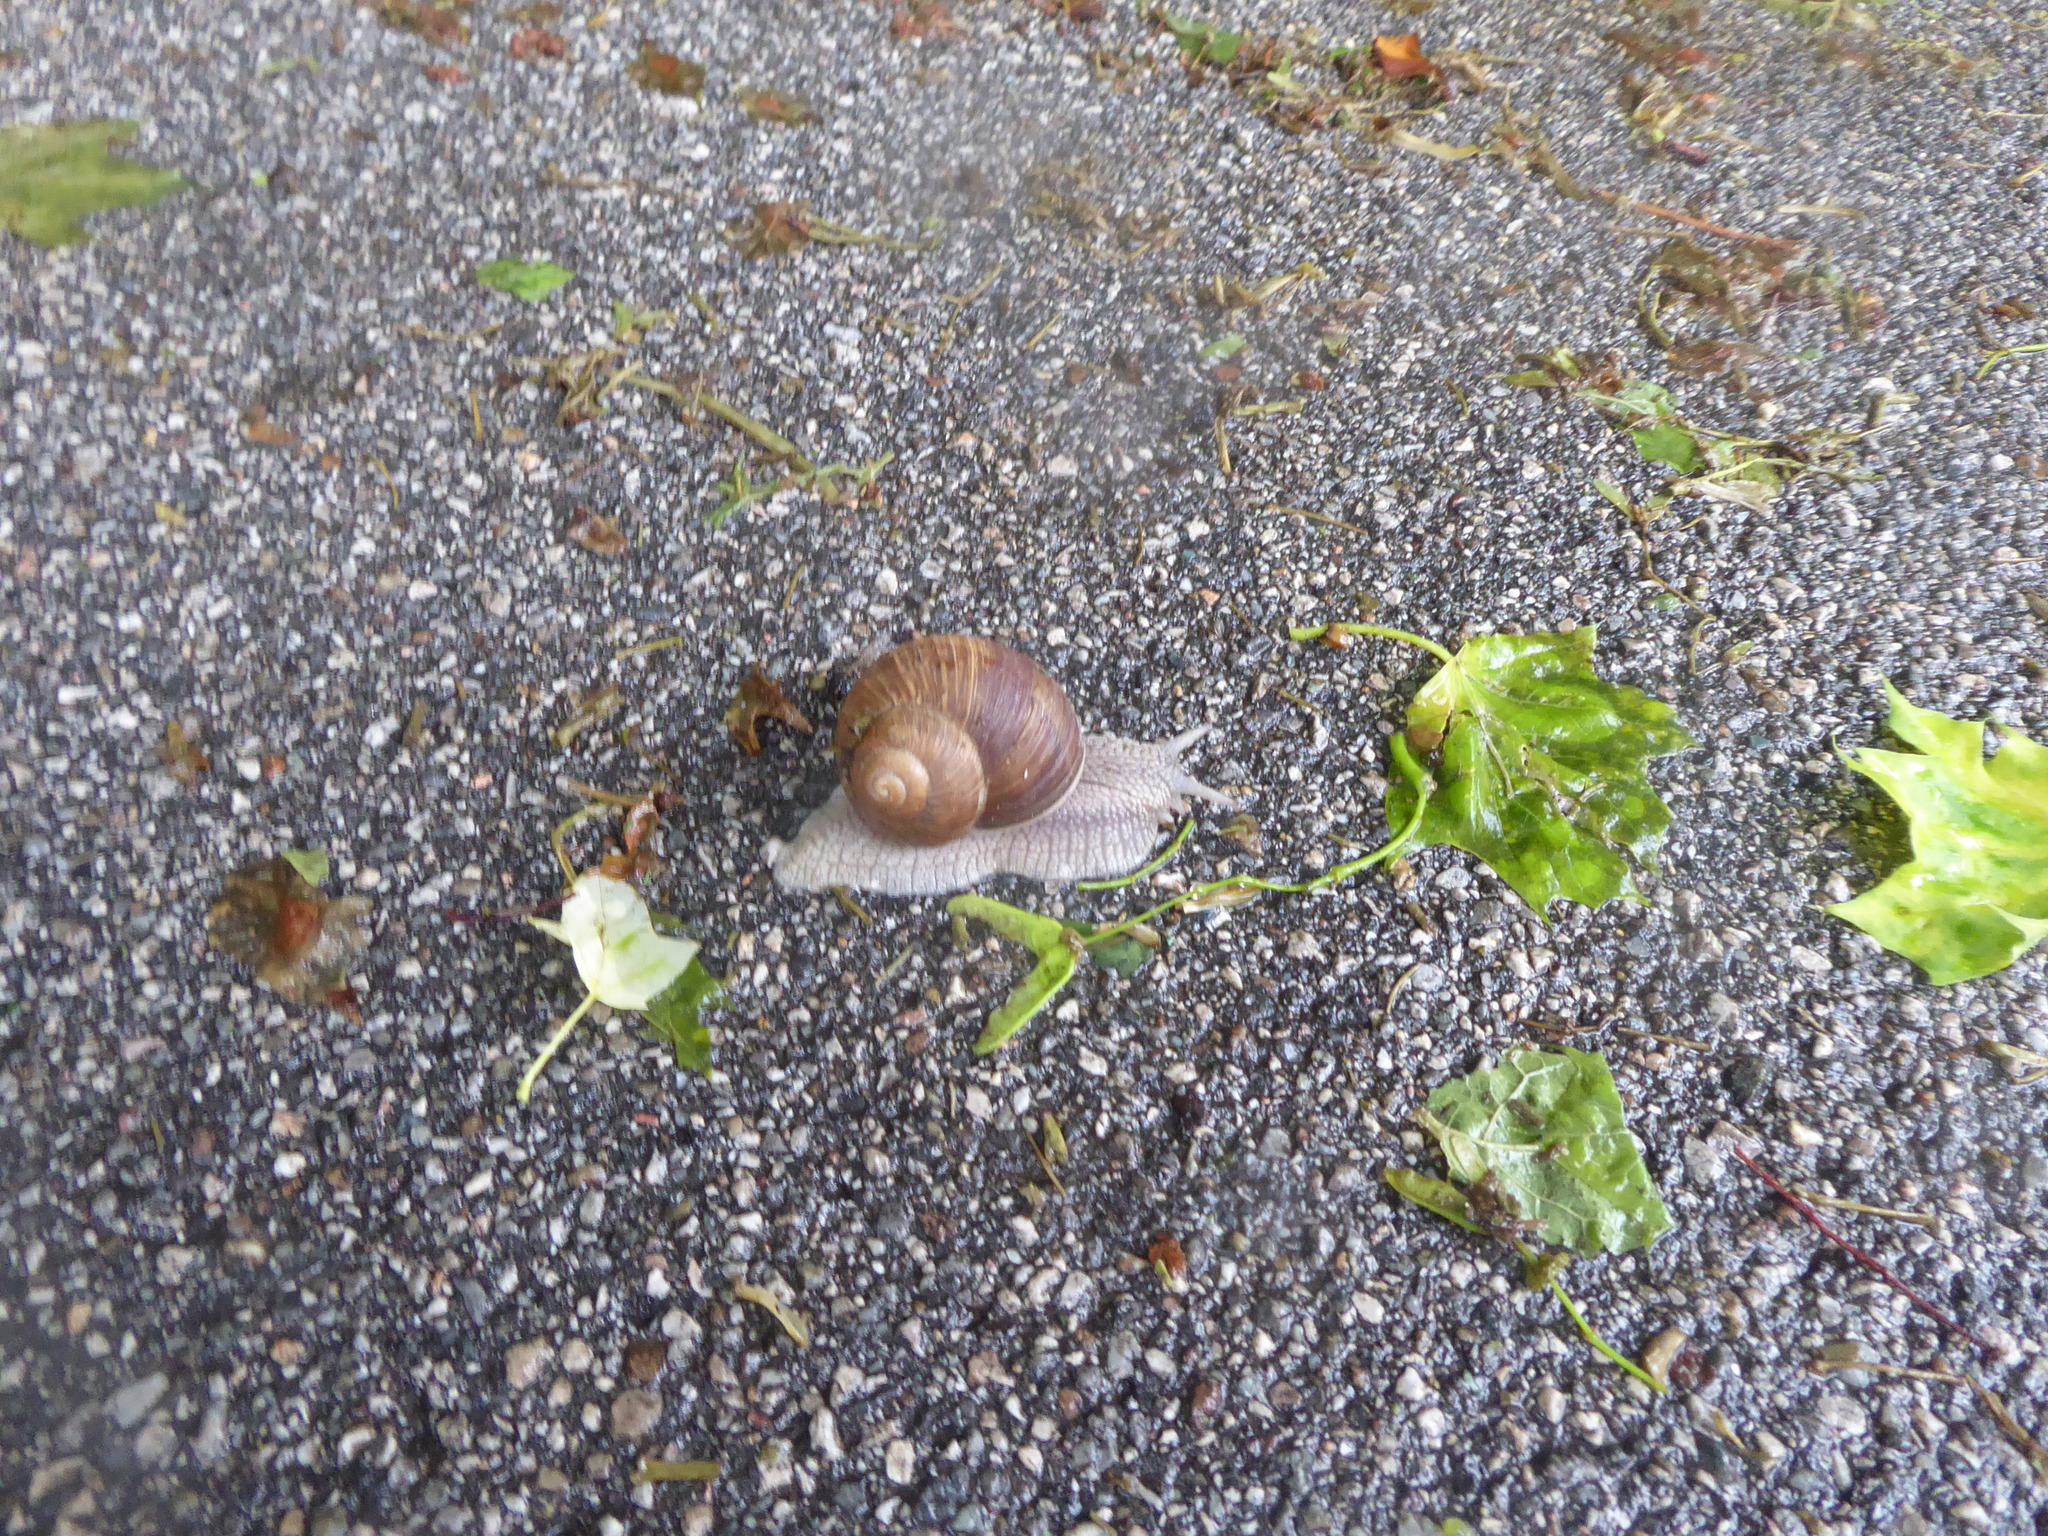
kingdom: Animalia
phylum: Mollusca
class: Gastropoda
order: Stylommatophora
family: Helicidae
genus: Helix
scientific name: Helix pomatia
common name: Roman snail
